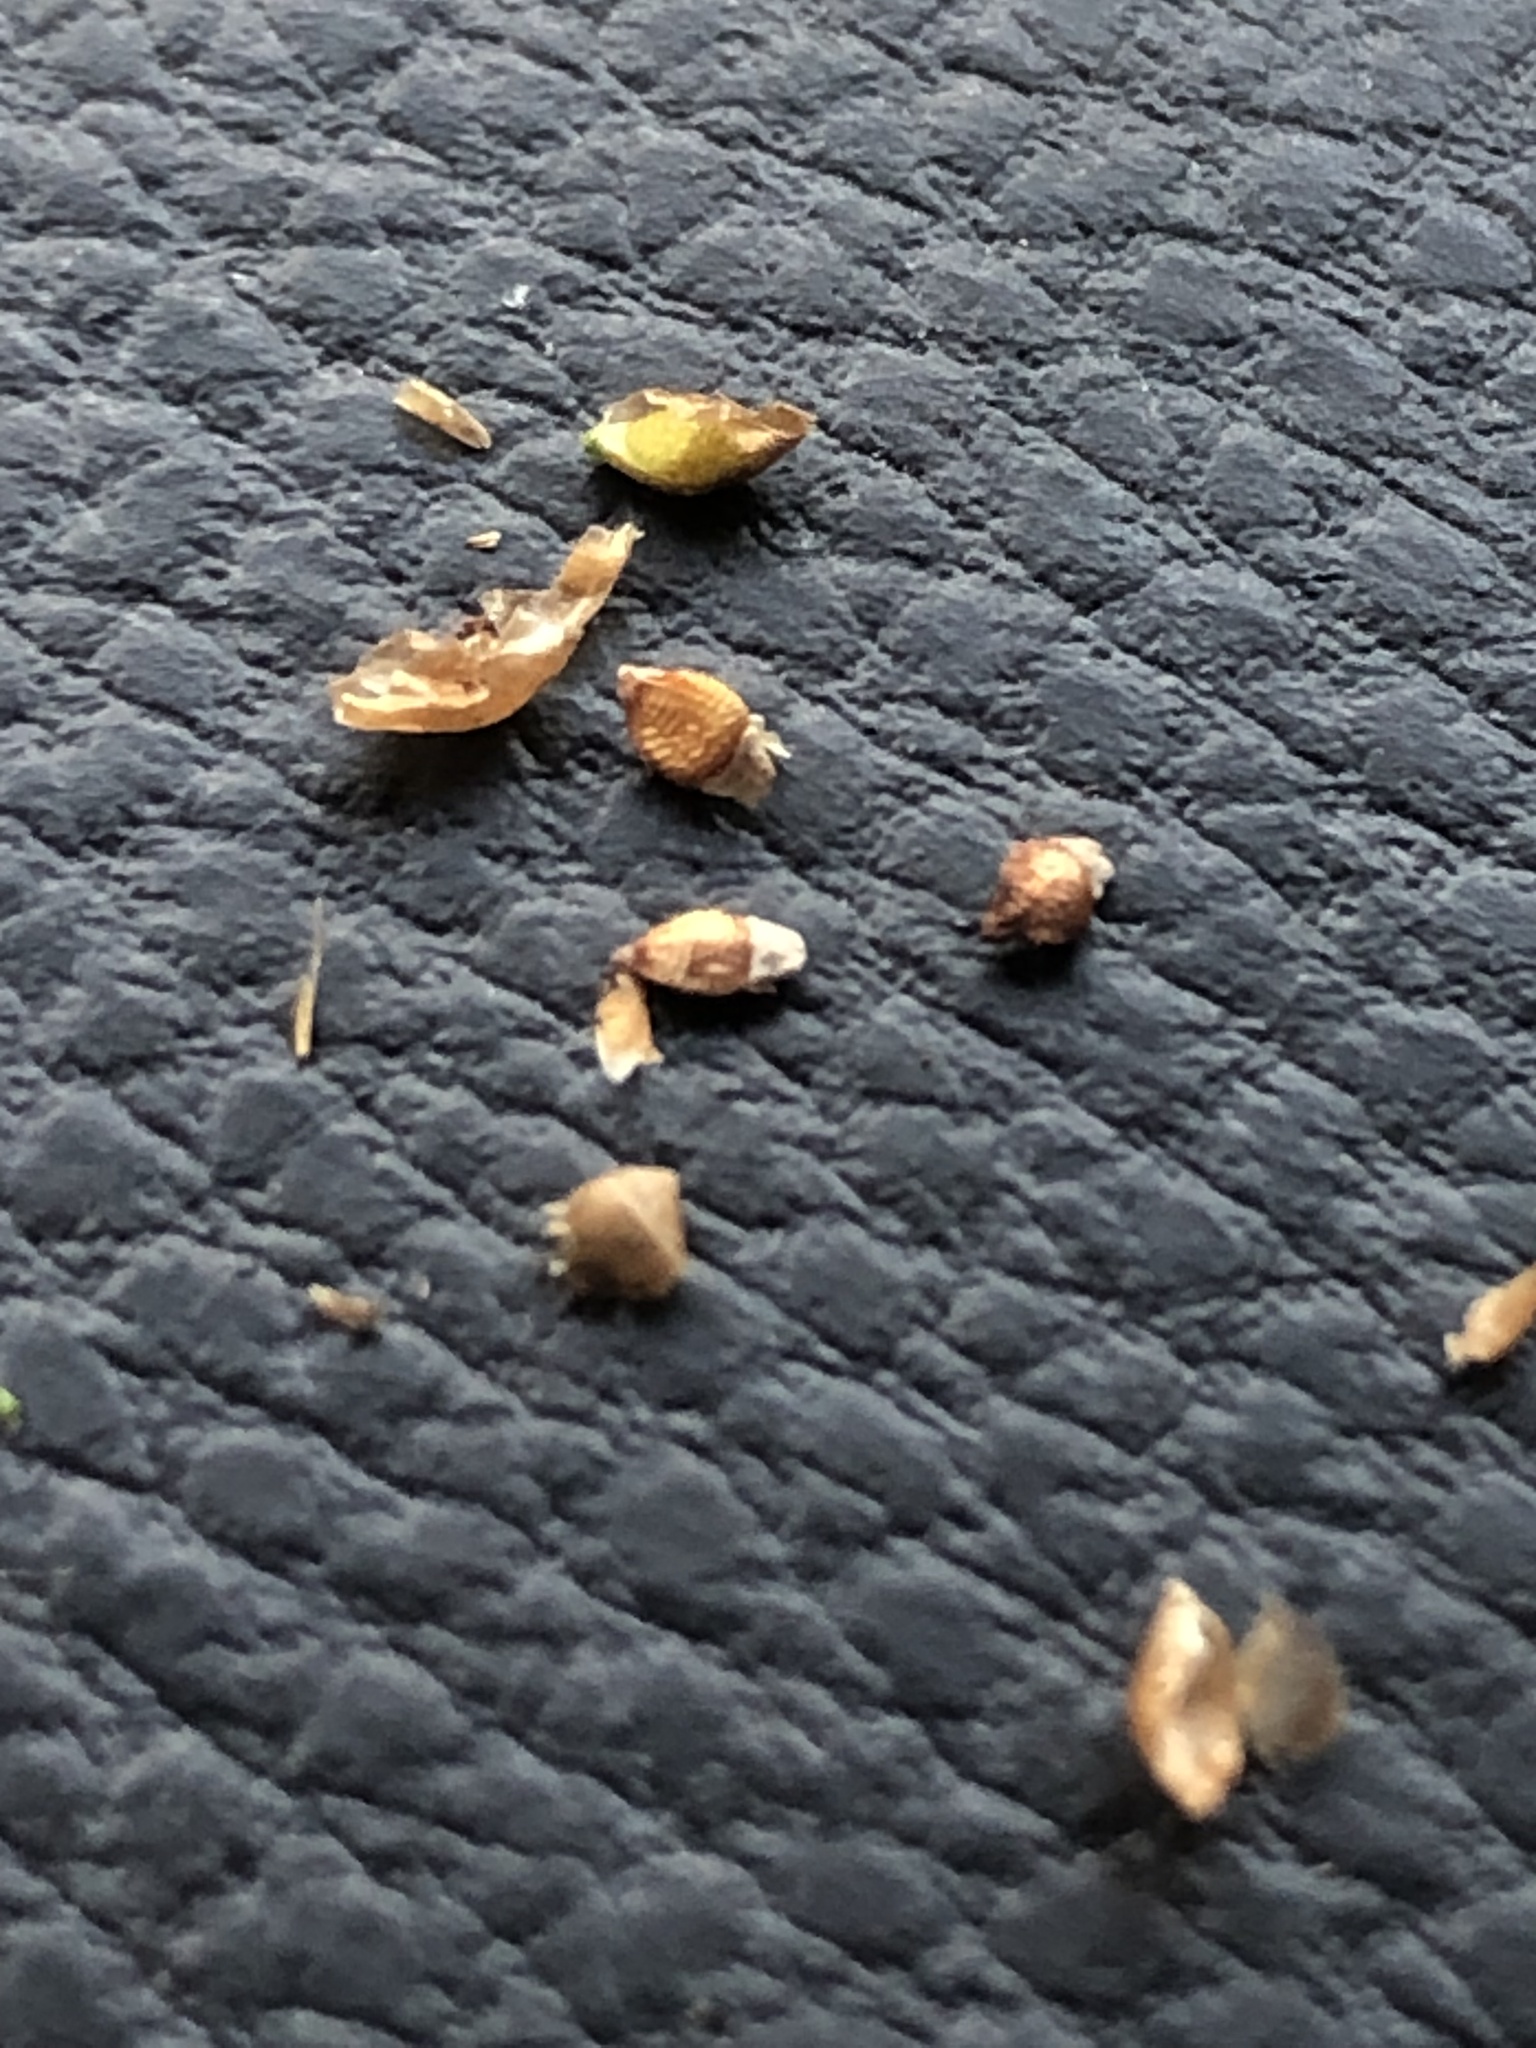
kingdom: Plantae
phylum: Tracheophyta
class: Liliopsida
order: Poales
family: Cyperaceae
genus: Rhynchospora
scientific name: Rhynchospora rariflora
